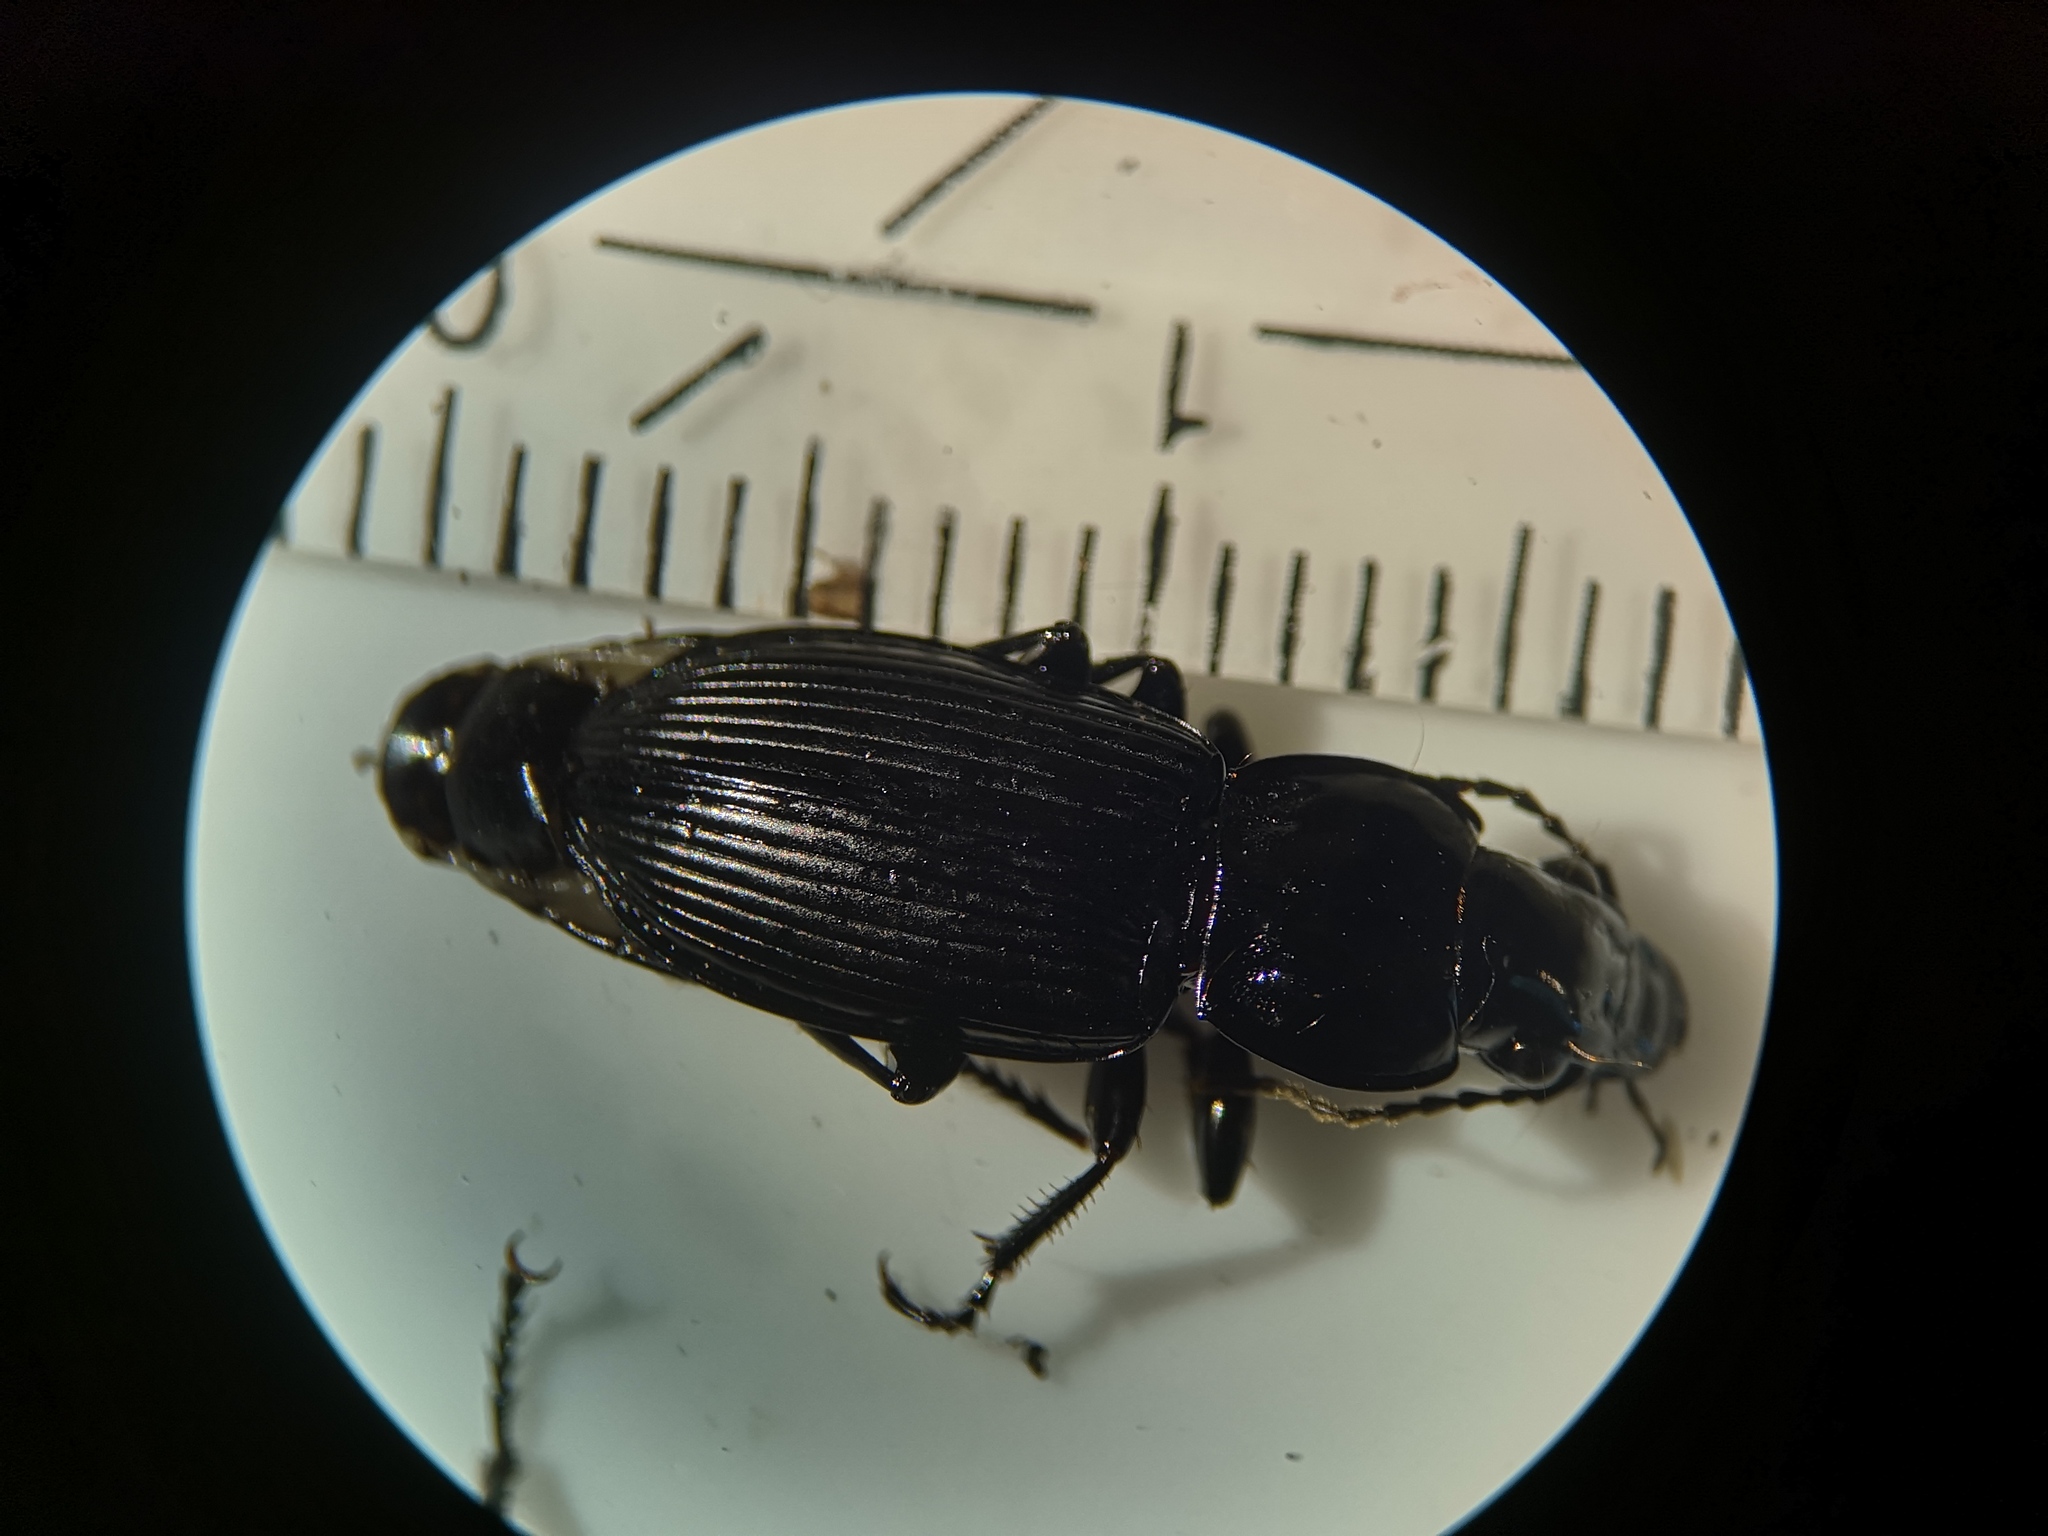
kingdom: Animalia
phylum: Arthropoda
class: Insecta
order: Coleoptera
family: Carabidae
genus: Pterostichus
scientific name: Pterostichus melanarius
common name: European dark harp ground beetle
